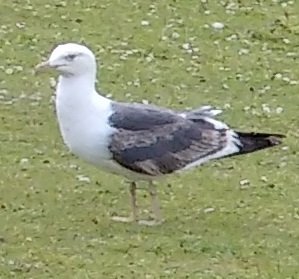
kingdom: Animalia
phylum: Chordata
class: Aves
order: Charadriiformes
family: Laridae
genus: Larus
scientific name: Larus fuscus
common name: Lesser black-backed gull
